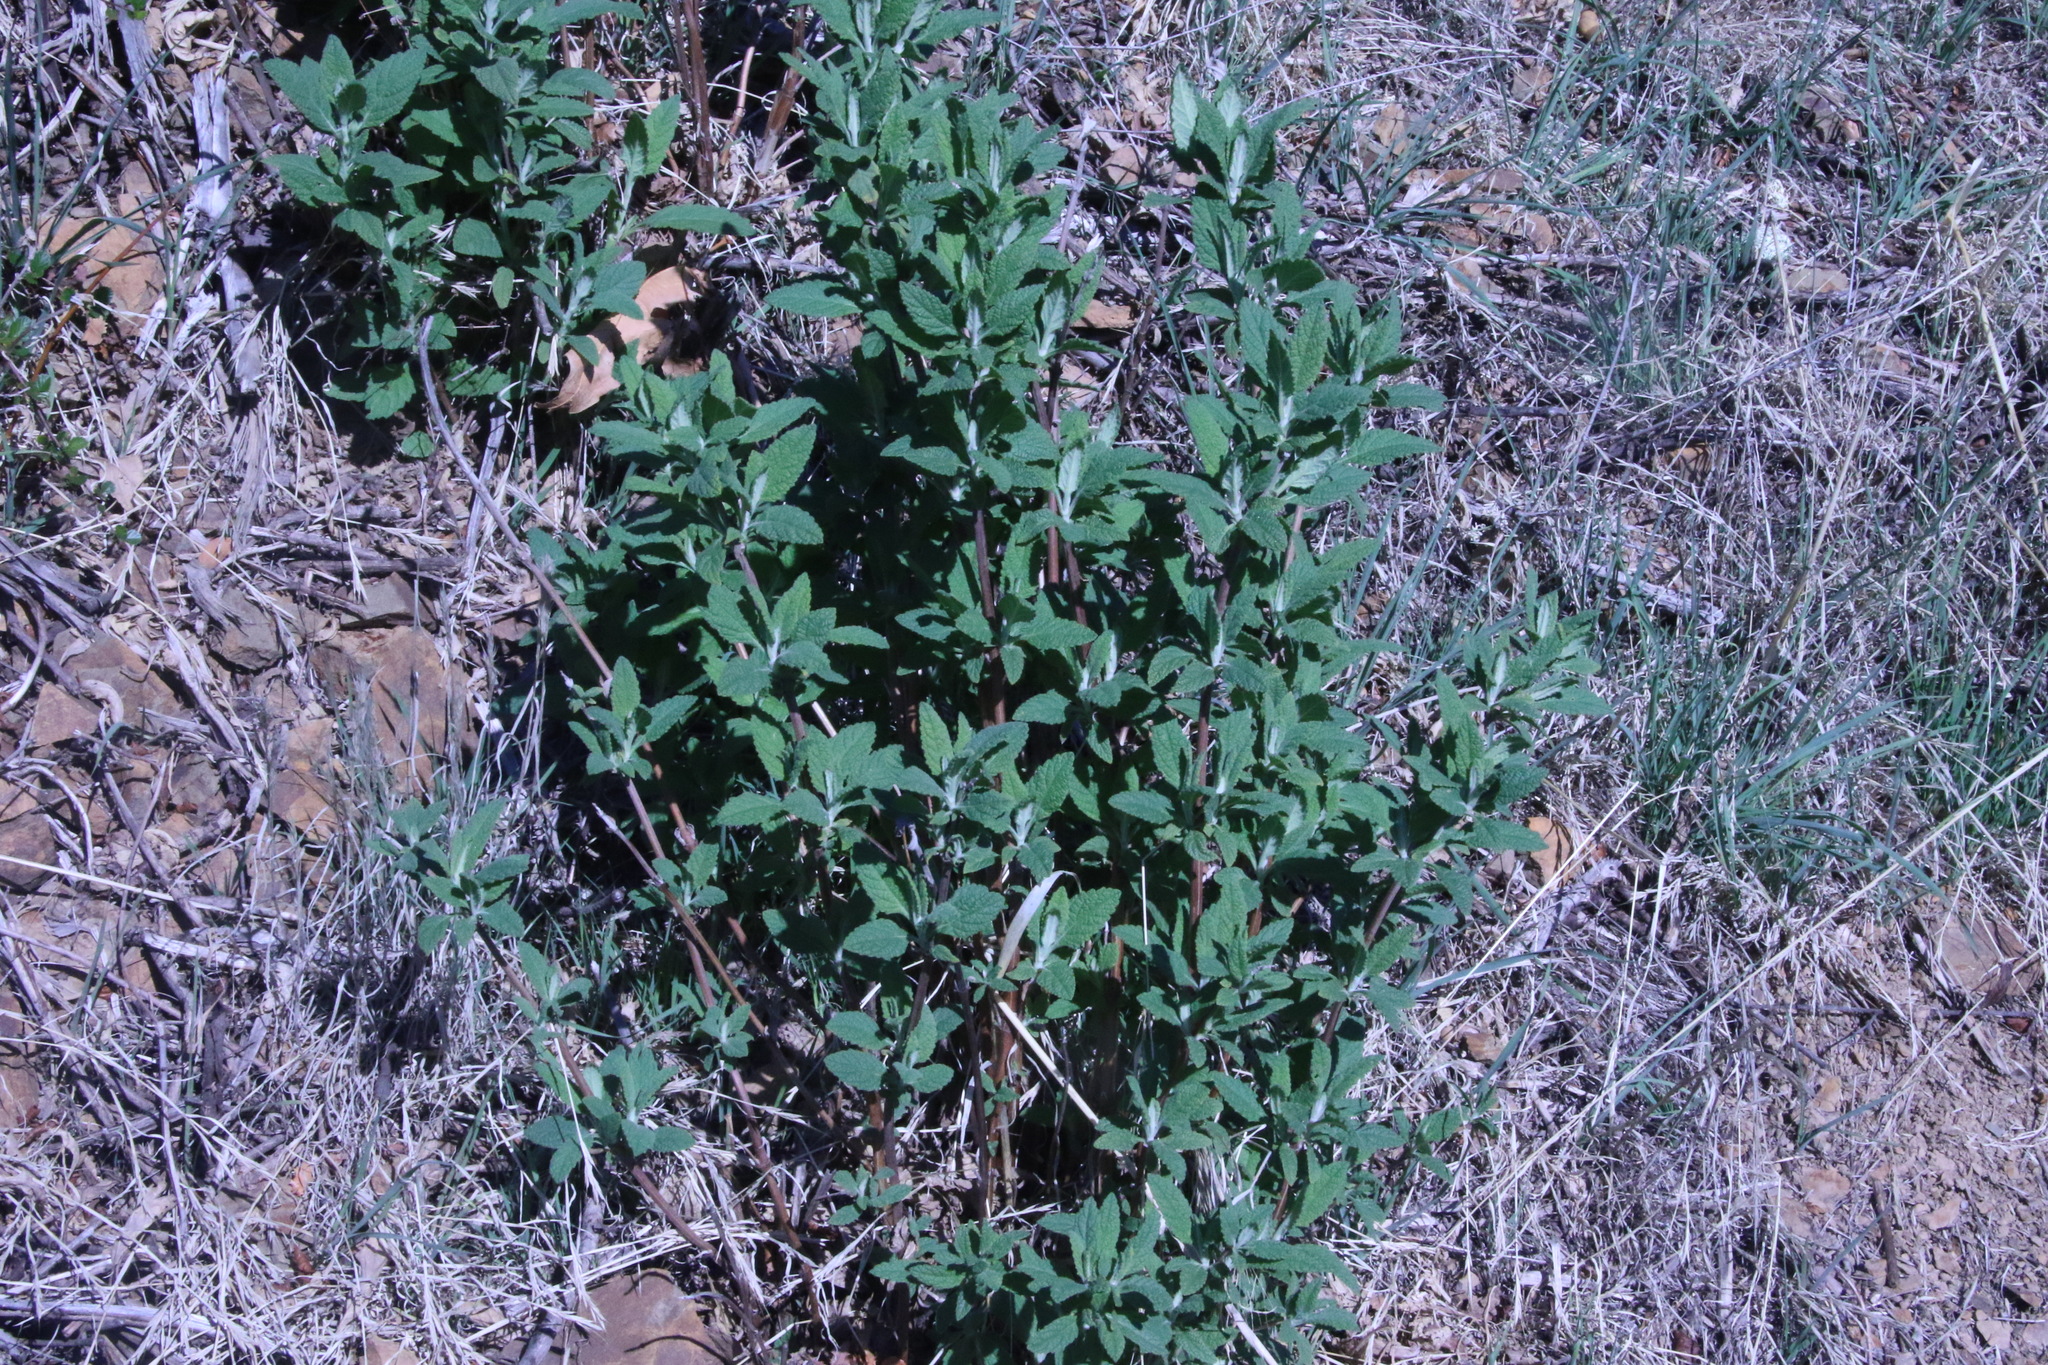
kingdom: Plantae
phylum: Tracheophyta
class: Magnoliopsida
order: Lamiales
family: Lamiaceae
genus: Lepechinia
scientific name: Lepechinia calycina
